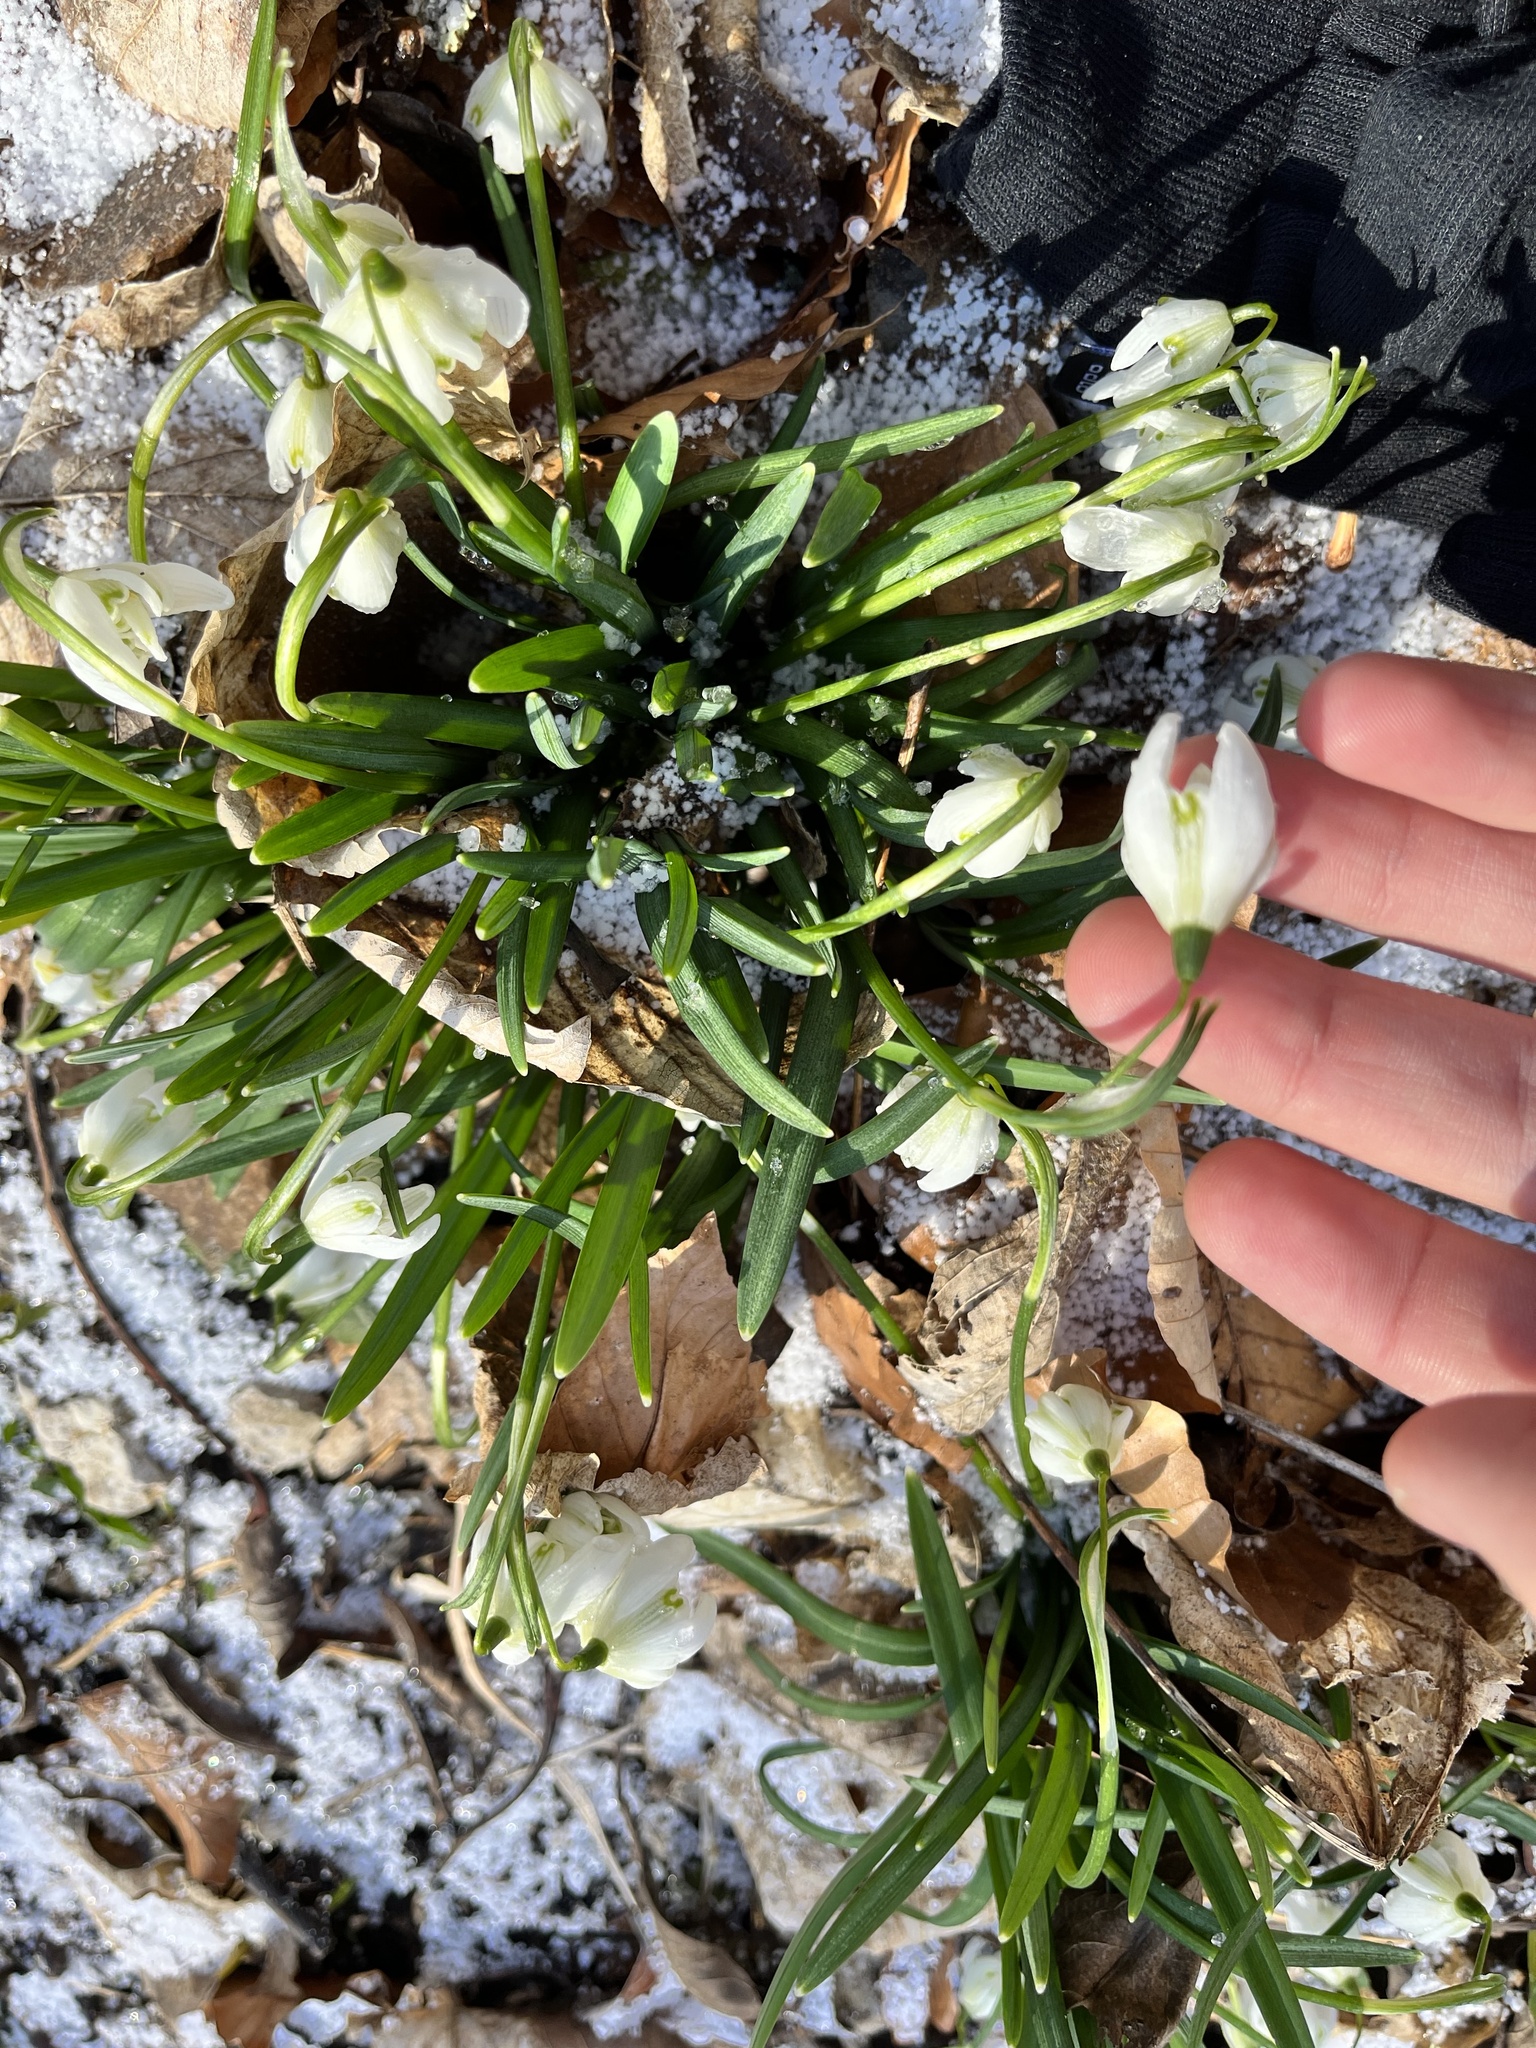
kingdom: Plantae
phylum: Tracheophyta
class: Liliopsida
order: Asparagales
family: Amaryllidaceae
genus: Leucojum
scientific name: Leucojum vernum
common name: Spring snowflake
